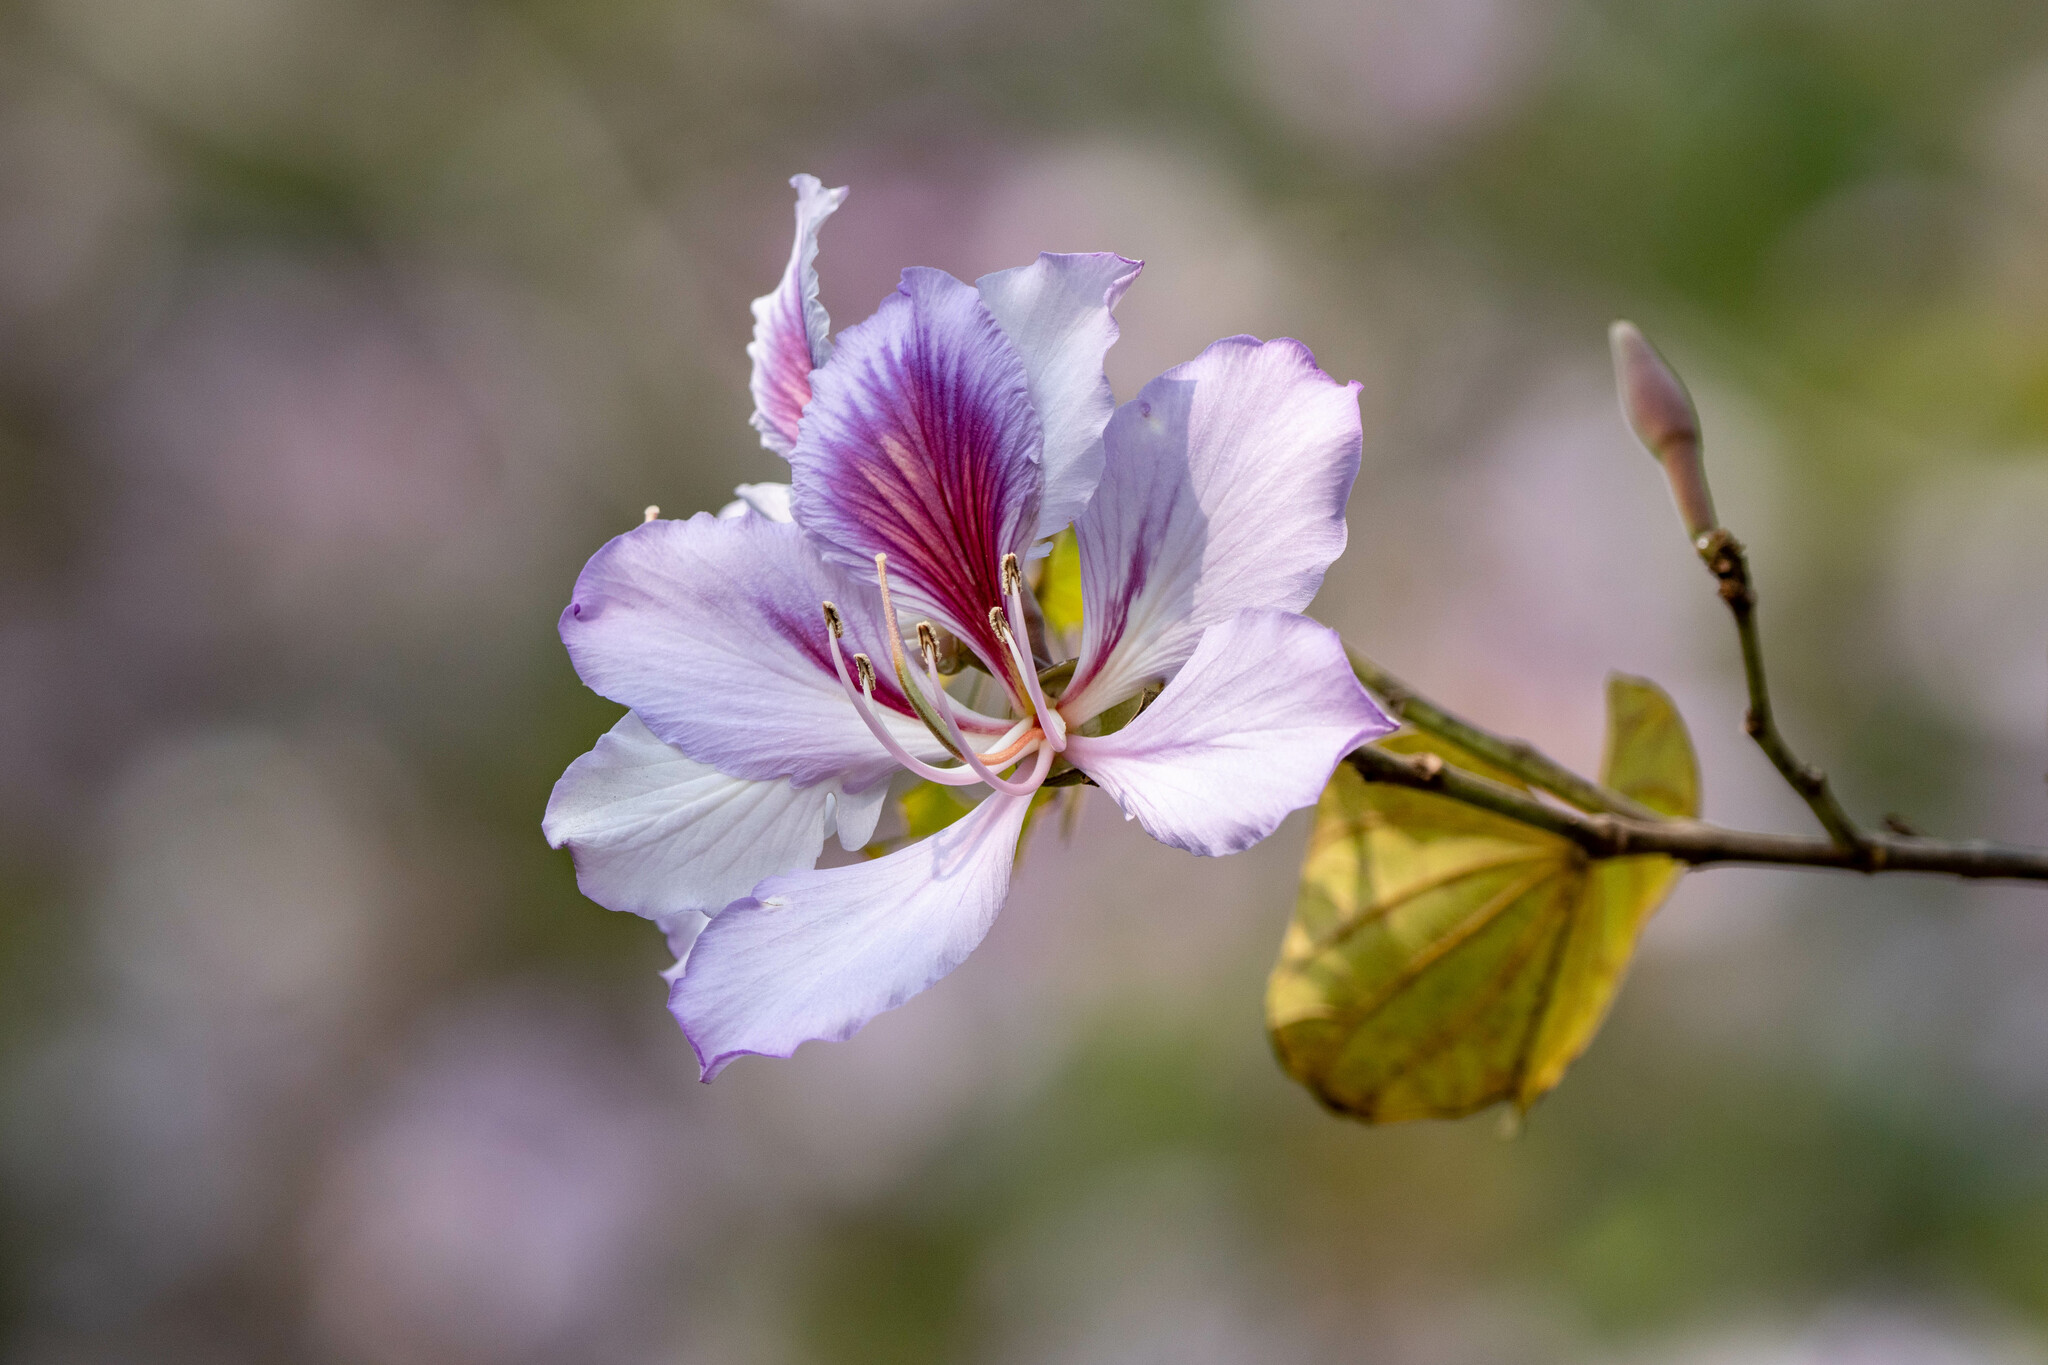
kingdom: Plantae
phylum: Tracheophyta
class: Magnoliopsida
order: Fabales
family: Fabaceae
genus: Bauhinia
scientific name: Bauhinia variegata
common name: Mountain ebony
